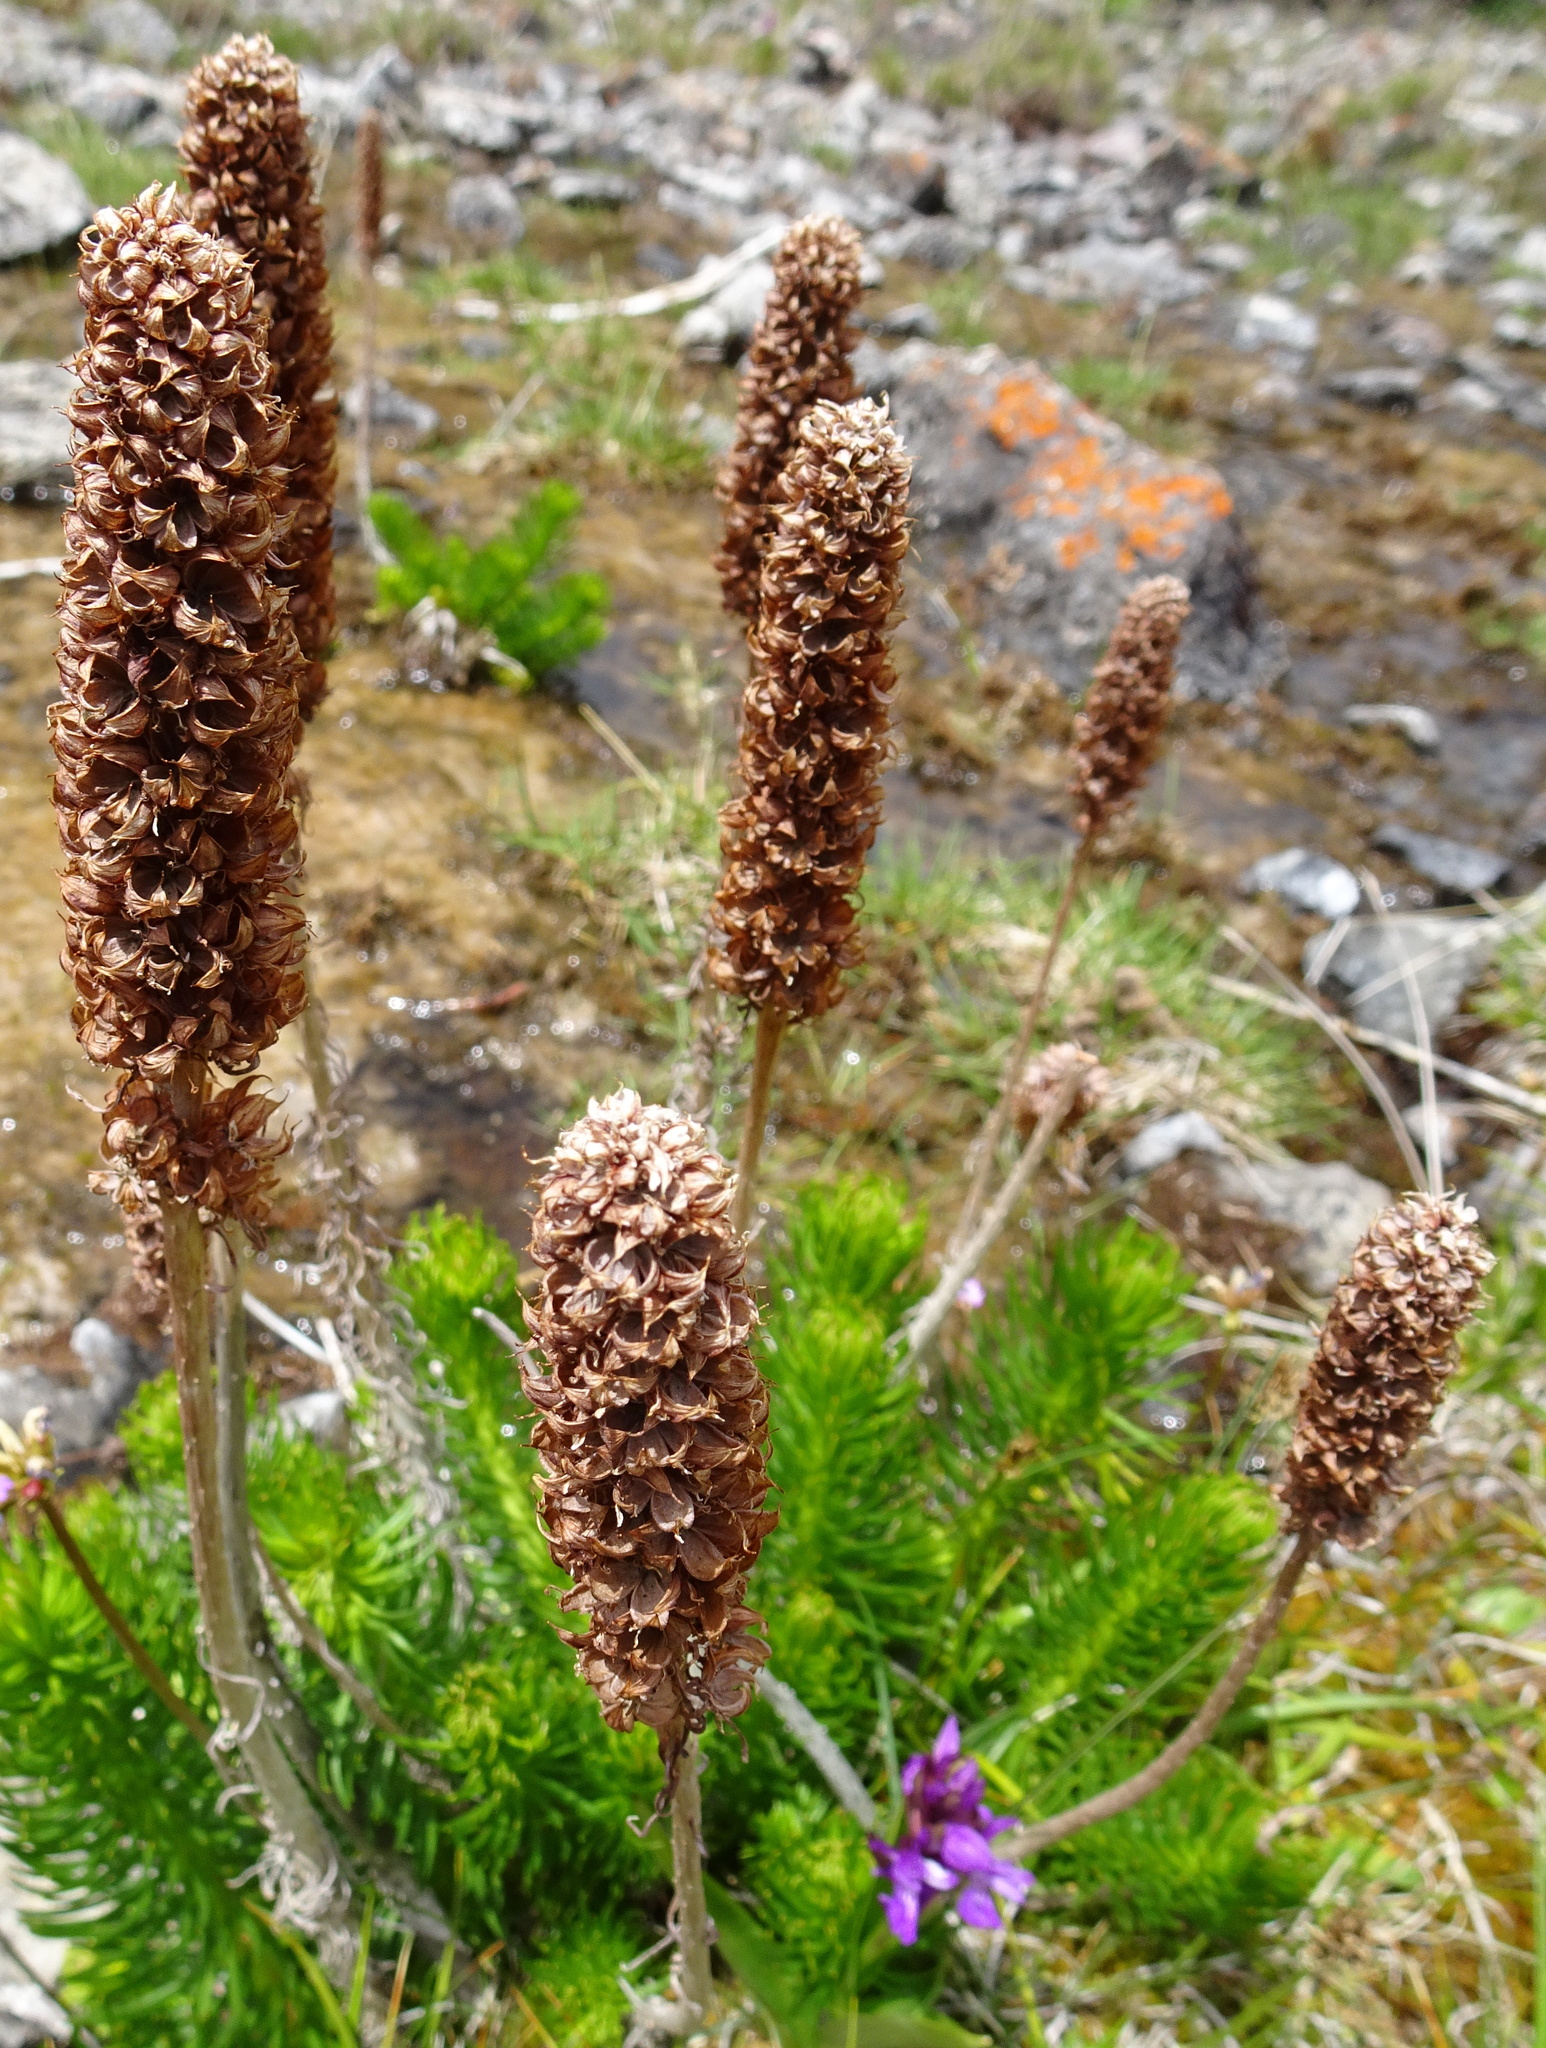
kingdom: Plantae
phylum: Tracheophyta
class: Magnoliopsida
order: Saxifragales
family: Crassulaceae
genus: Rhodiola
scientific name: Rhodiola semenovii
